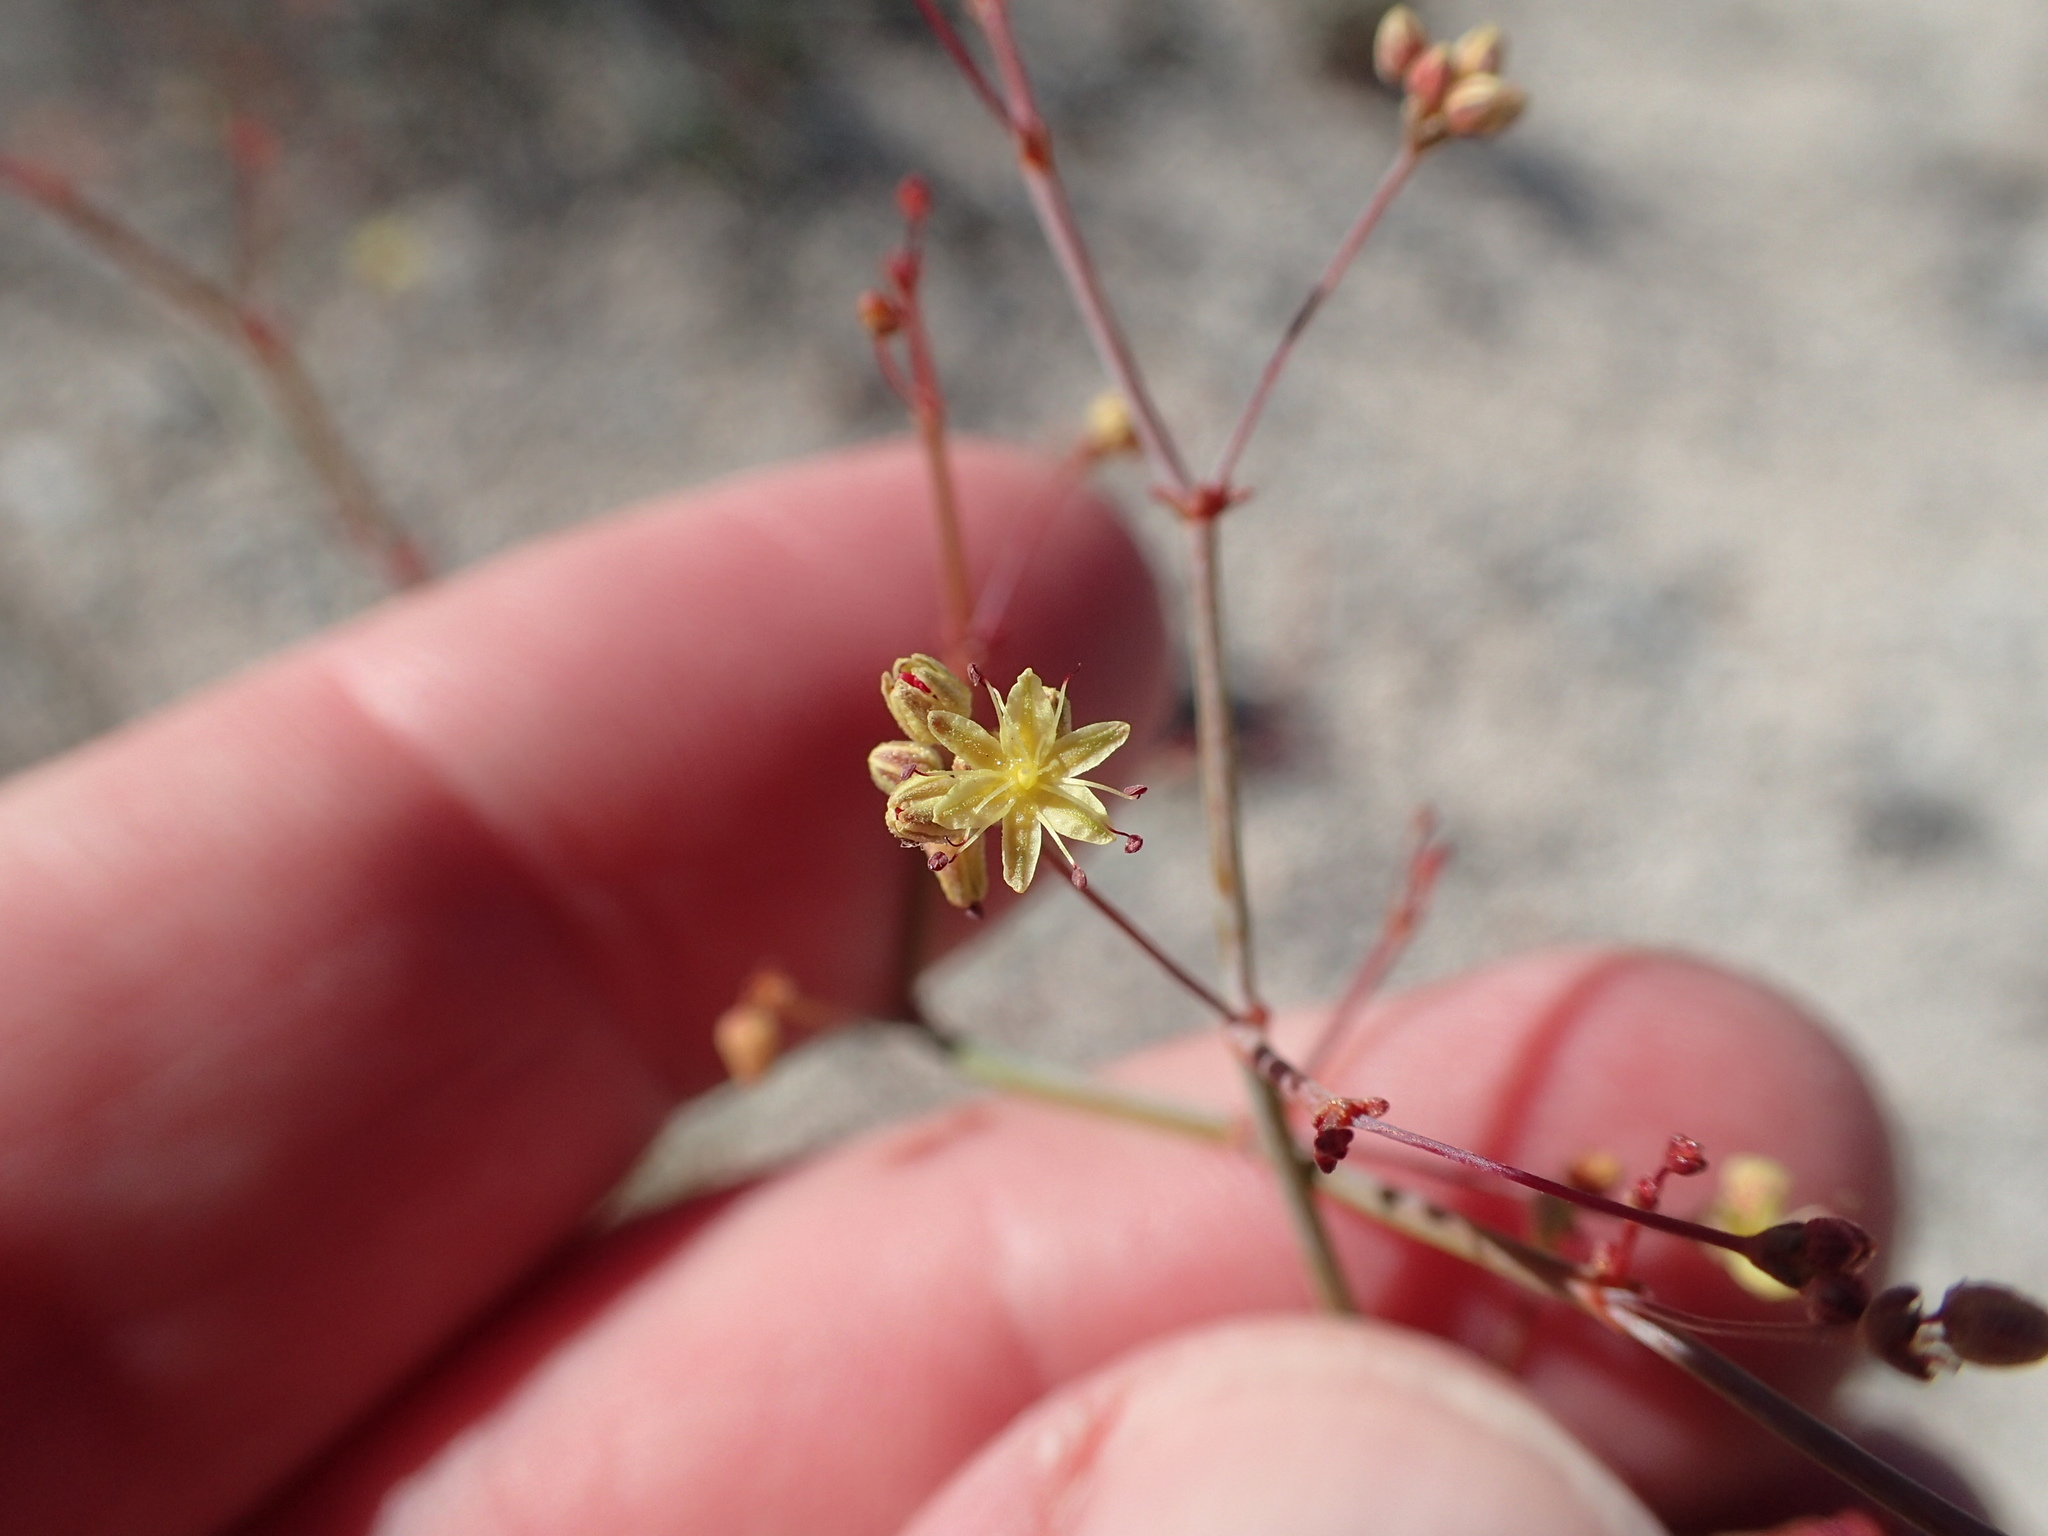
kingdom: Plantae
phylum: Tracheophyta
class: Magnoliopsida
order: Caryophyllales
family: Polygonaceae
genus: Eriogonum
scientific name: Eriogonum inflatum
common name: Desert trumpet
